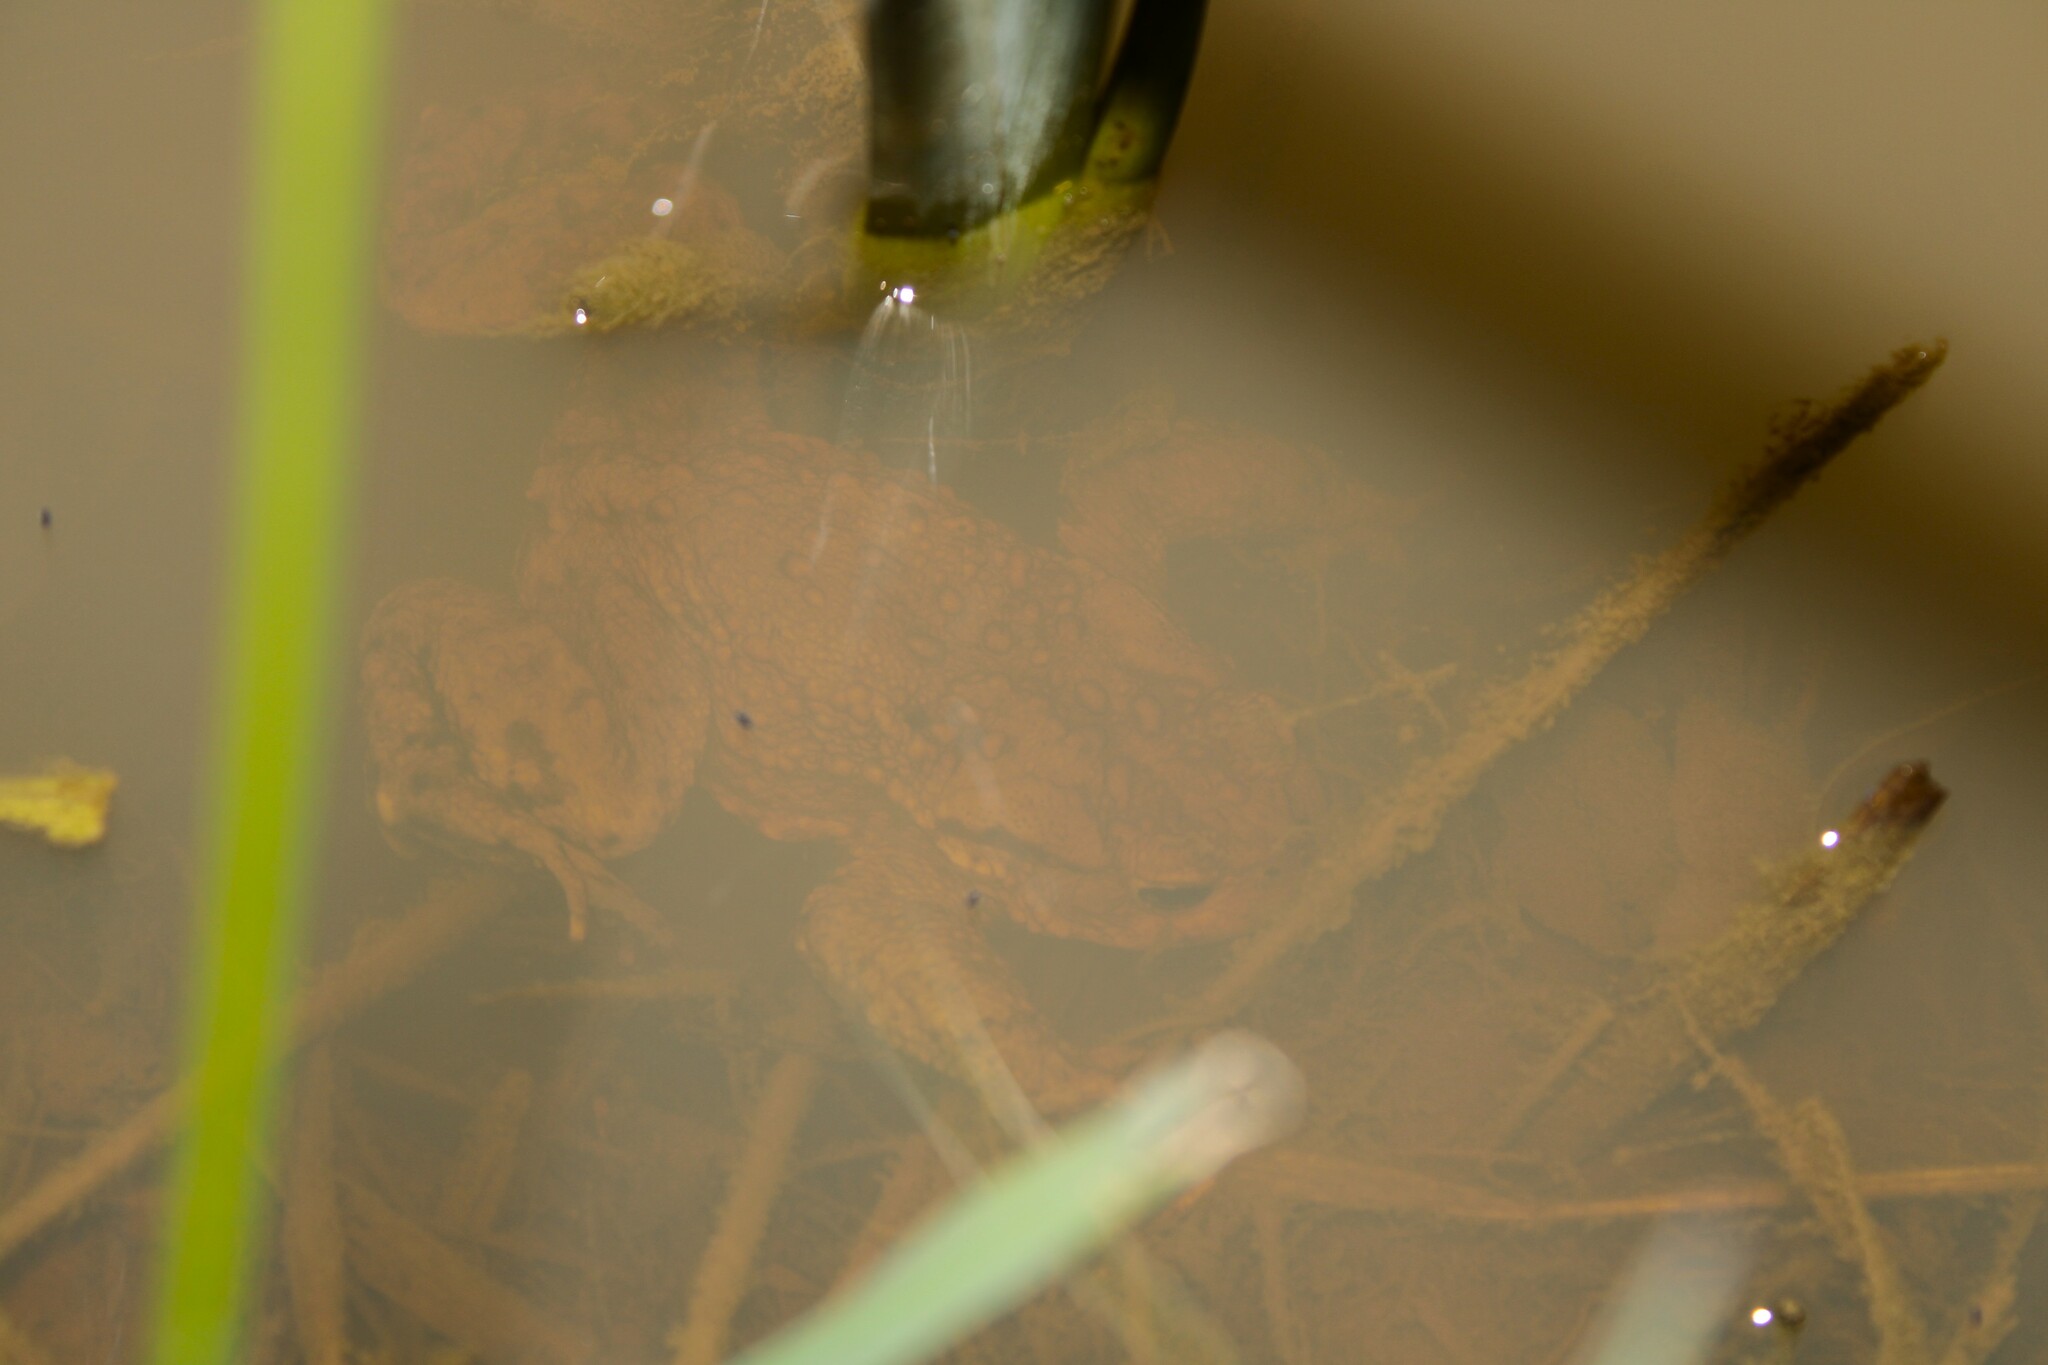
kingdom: Animalia
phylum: Chordata
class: Amphibia
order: Anura
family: Bufonidae
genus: Bufo
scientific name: Bufo bufo
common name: Common toad
